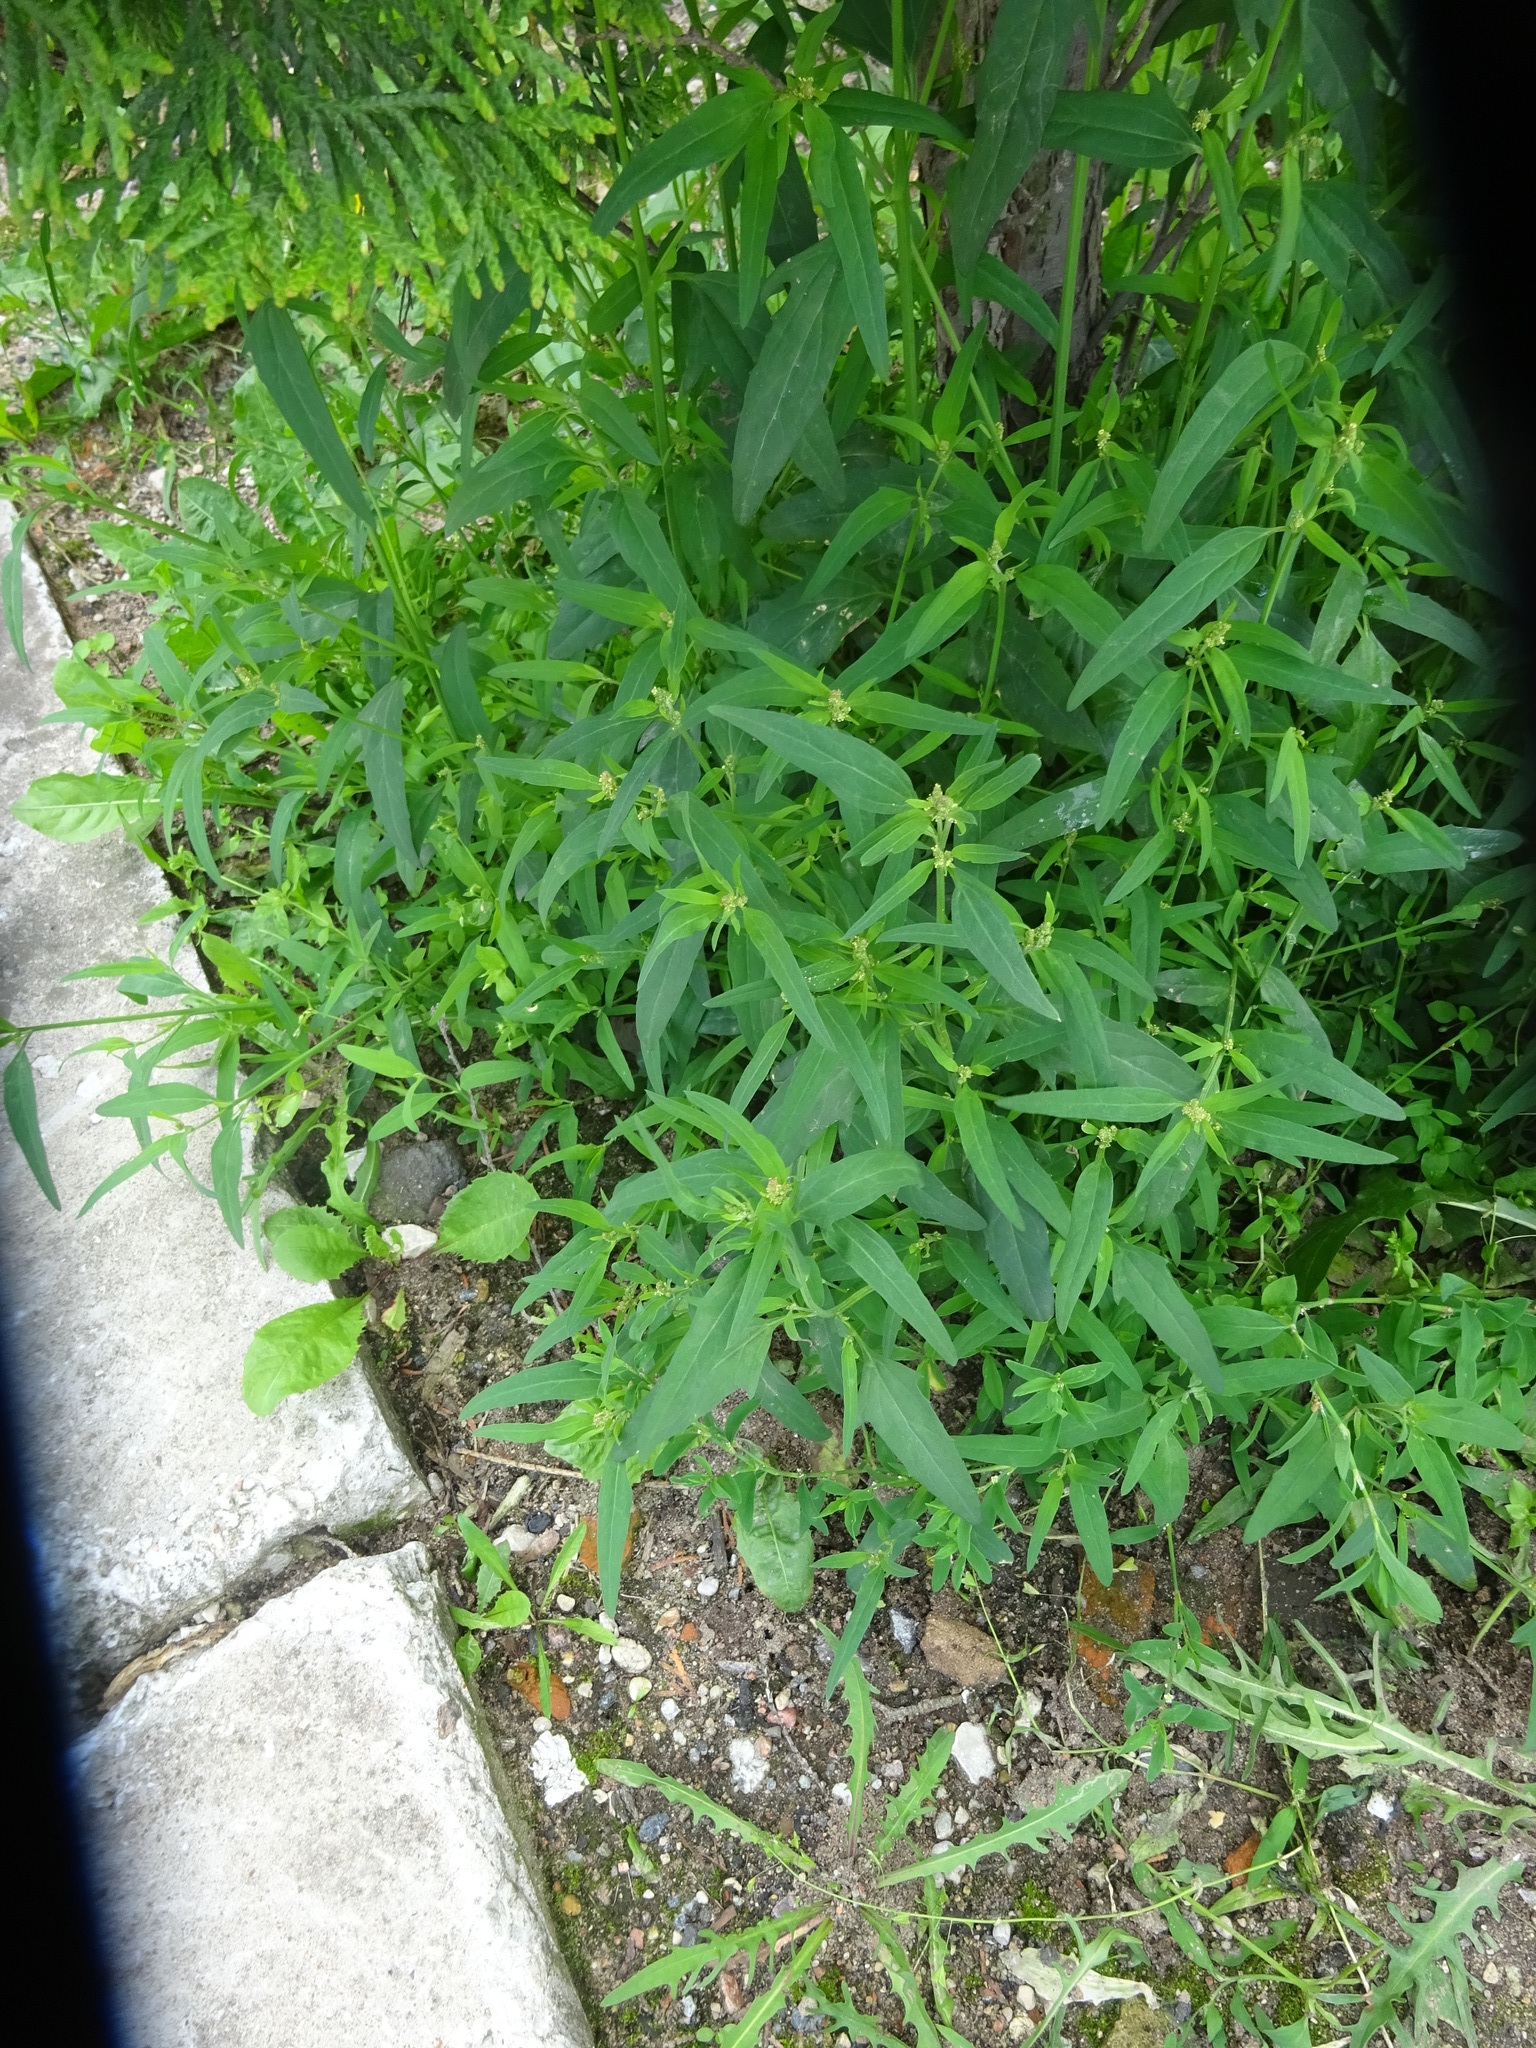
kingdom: Plantae
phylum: Tracheophyta
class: Magnoliopsida
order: Caryophyllales
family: Amaranthaceae
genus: Atriplex
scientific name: Atriplex patula
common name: Common orache
